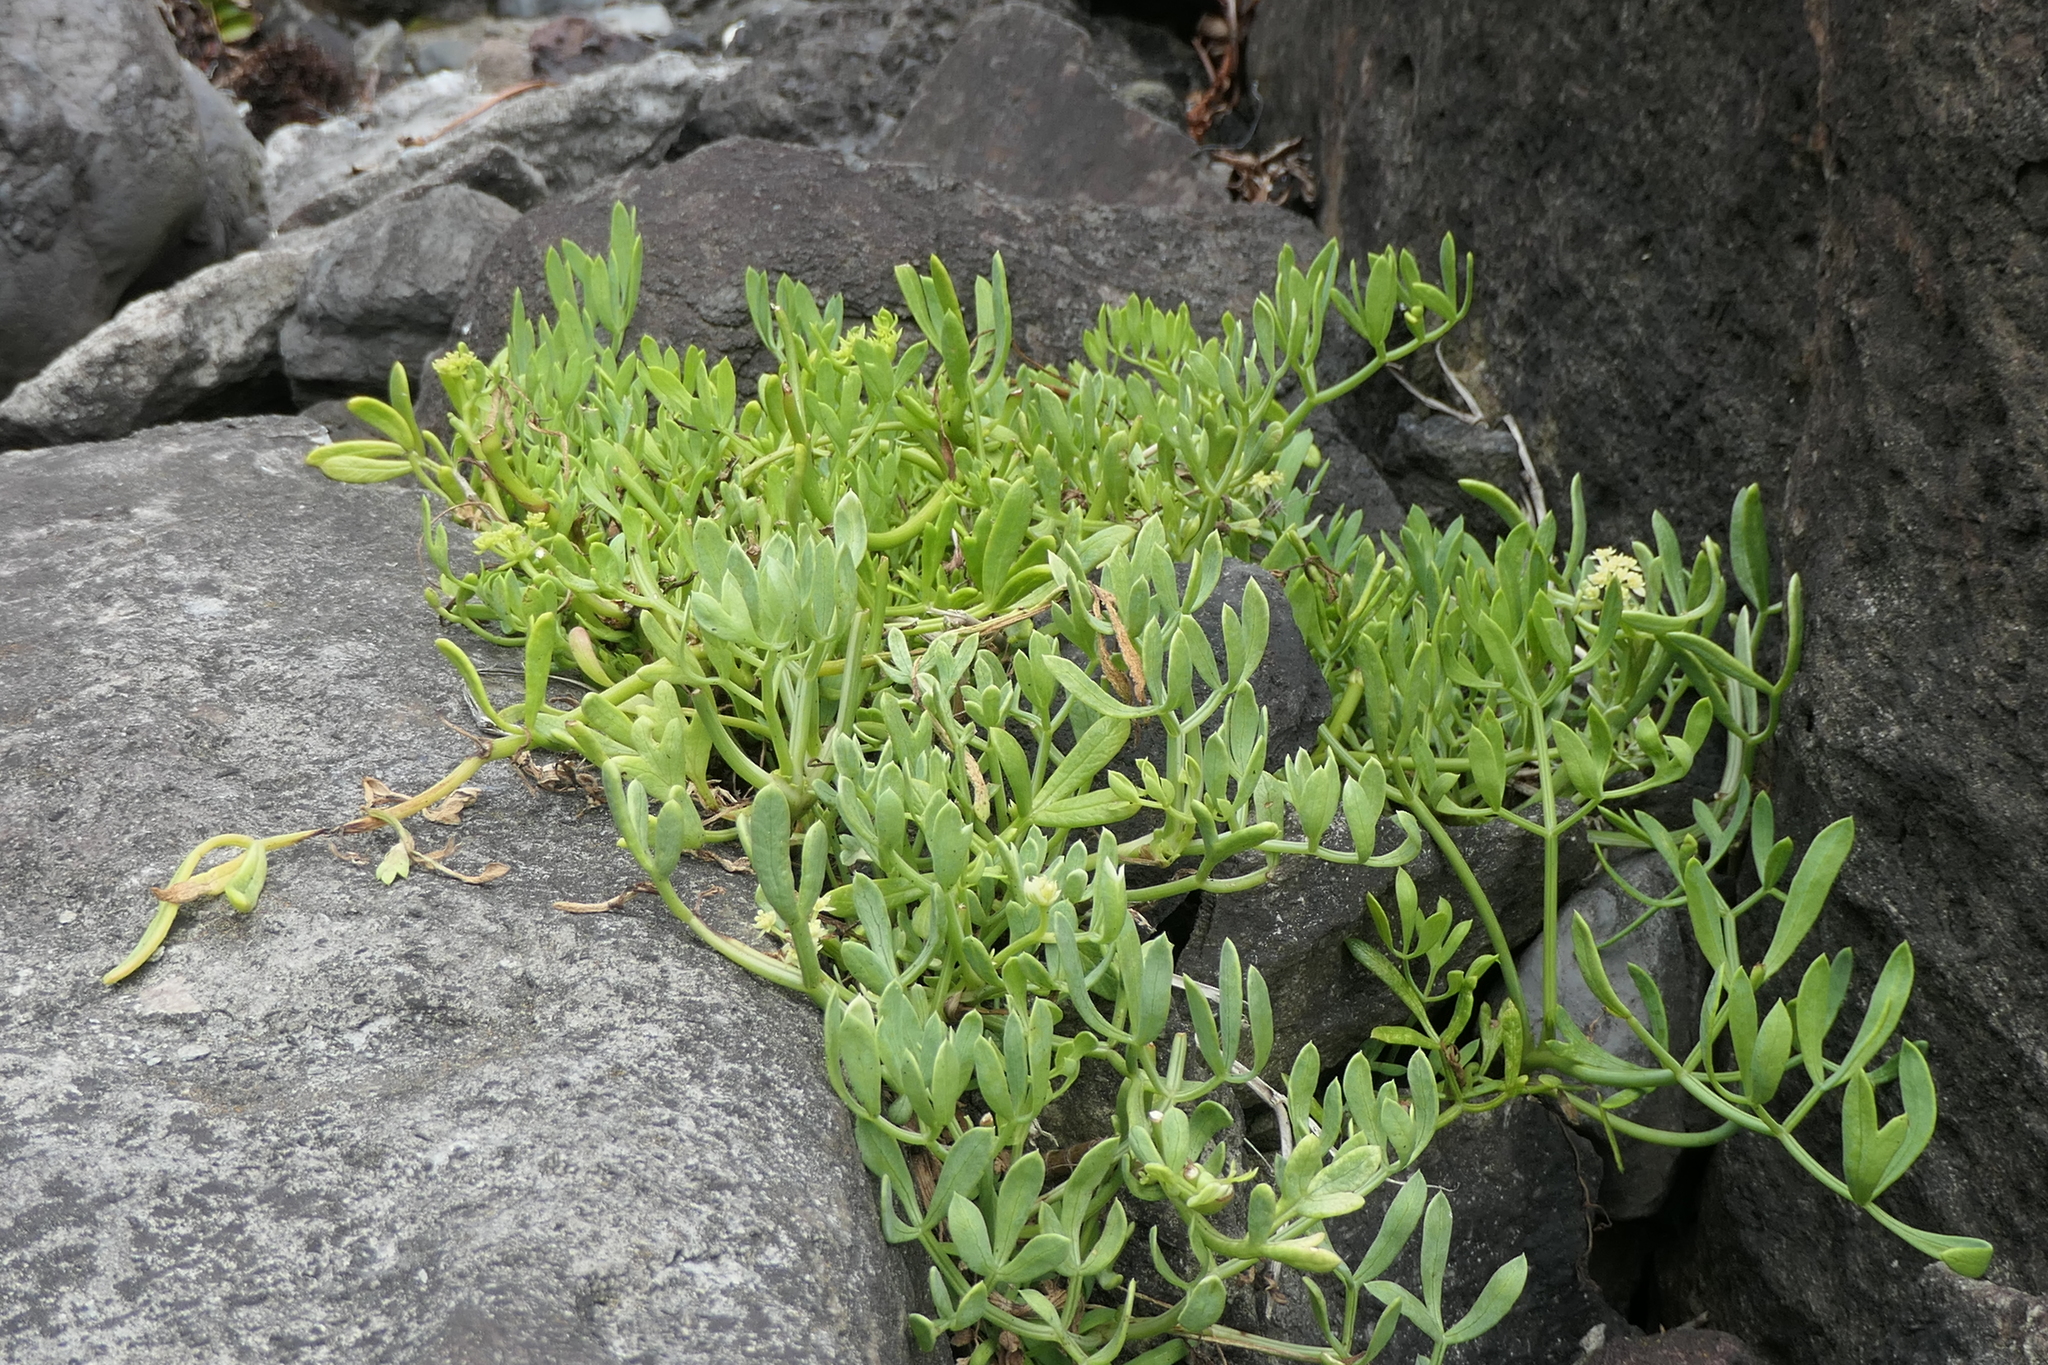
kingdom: Plantae
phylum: Tracheophyta
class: Magnoliopsida
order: Apiales
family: Apiaceae
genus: Crithmum
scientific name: Crithmum maritimum
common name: Rock samphire
